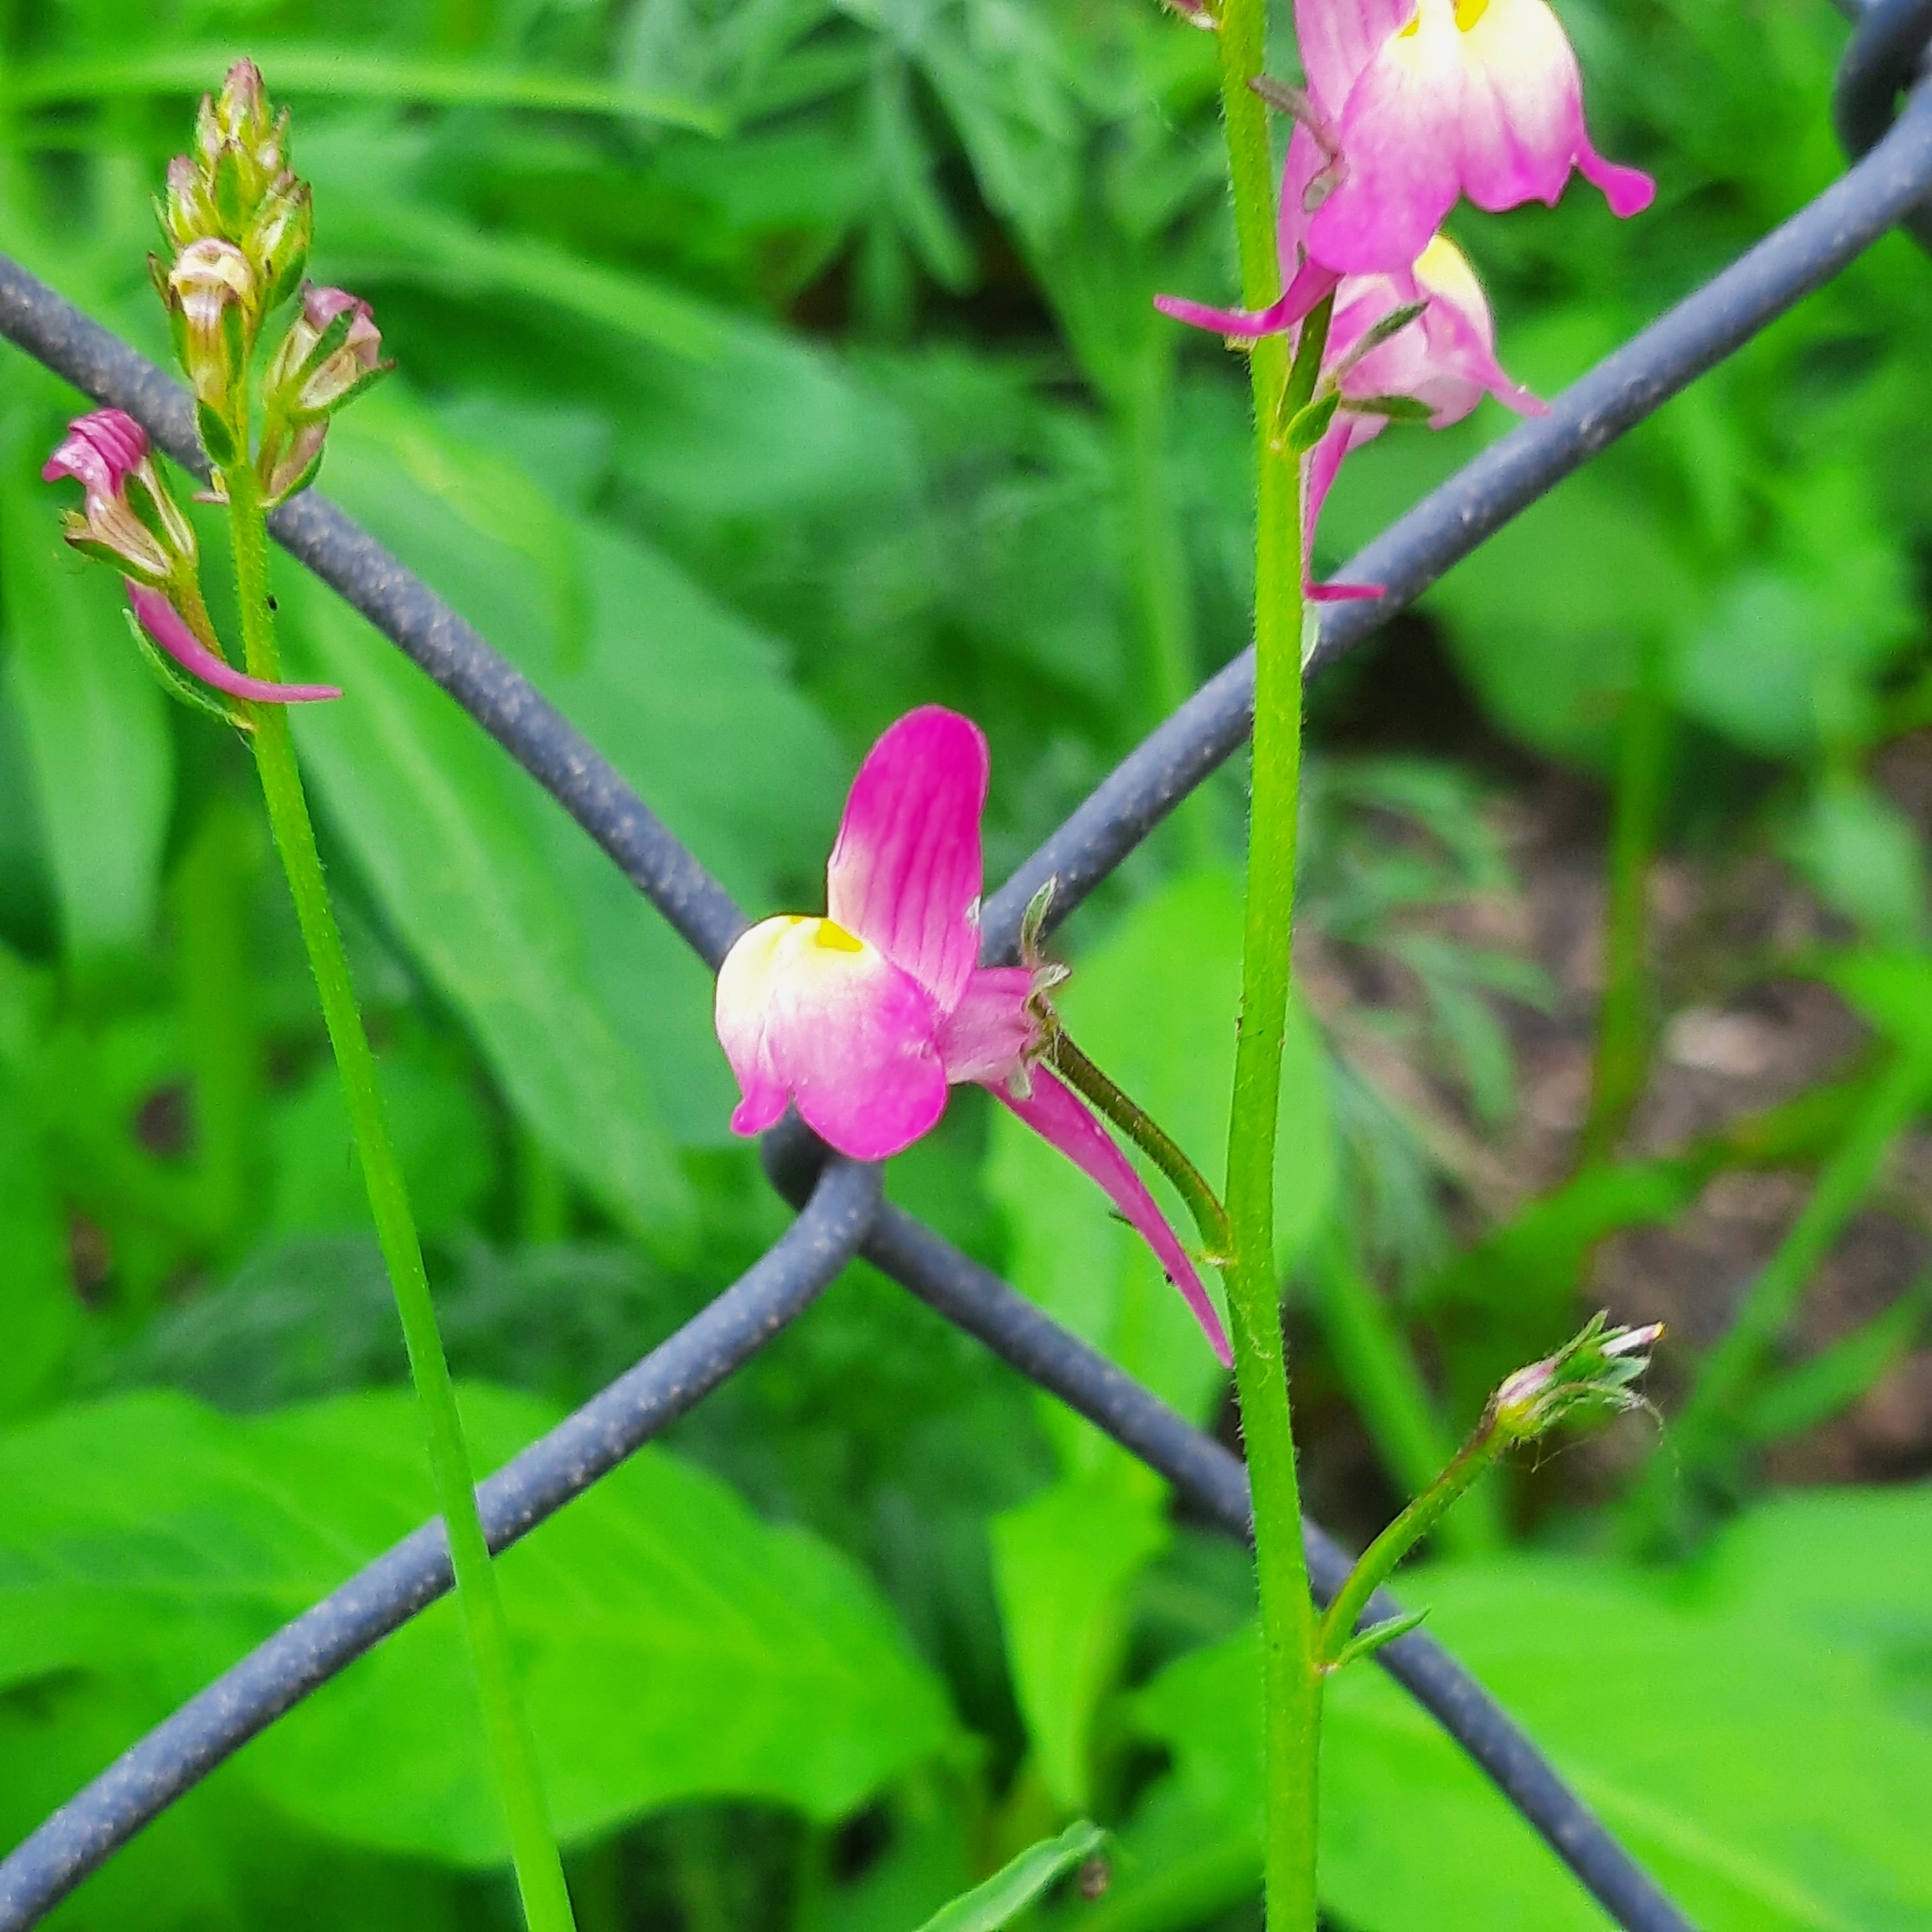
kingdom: Plantae
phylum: Tracheophyta
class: Magnoliopsida
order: Lamiales
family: Plantaginaceae
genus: Linaria
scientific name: Linaria maroccana
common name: Moroccan toadflax
